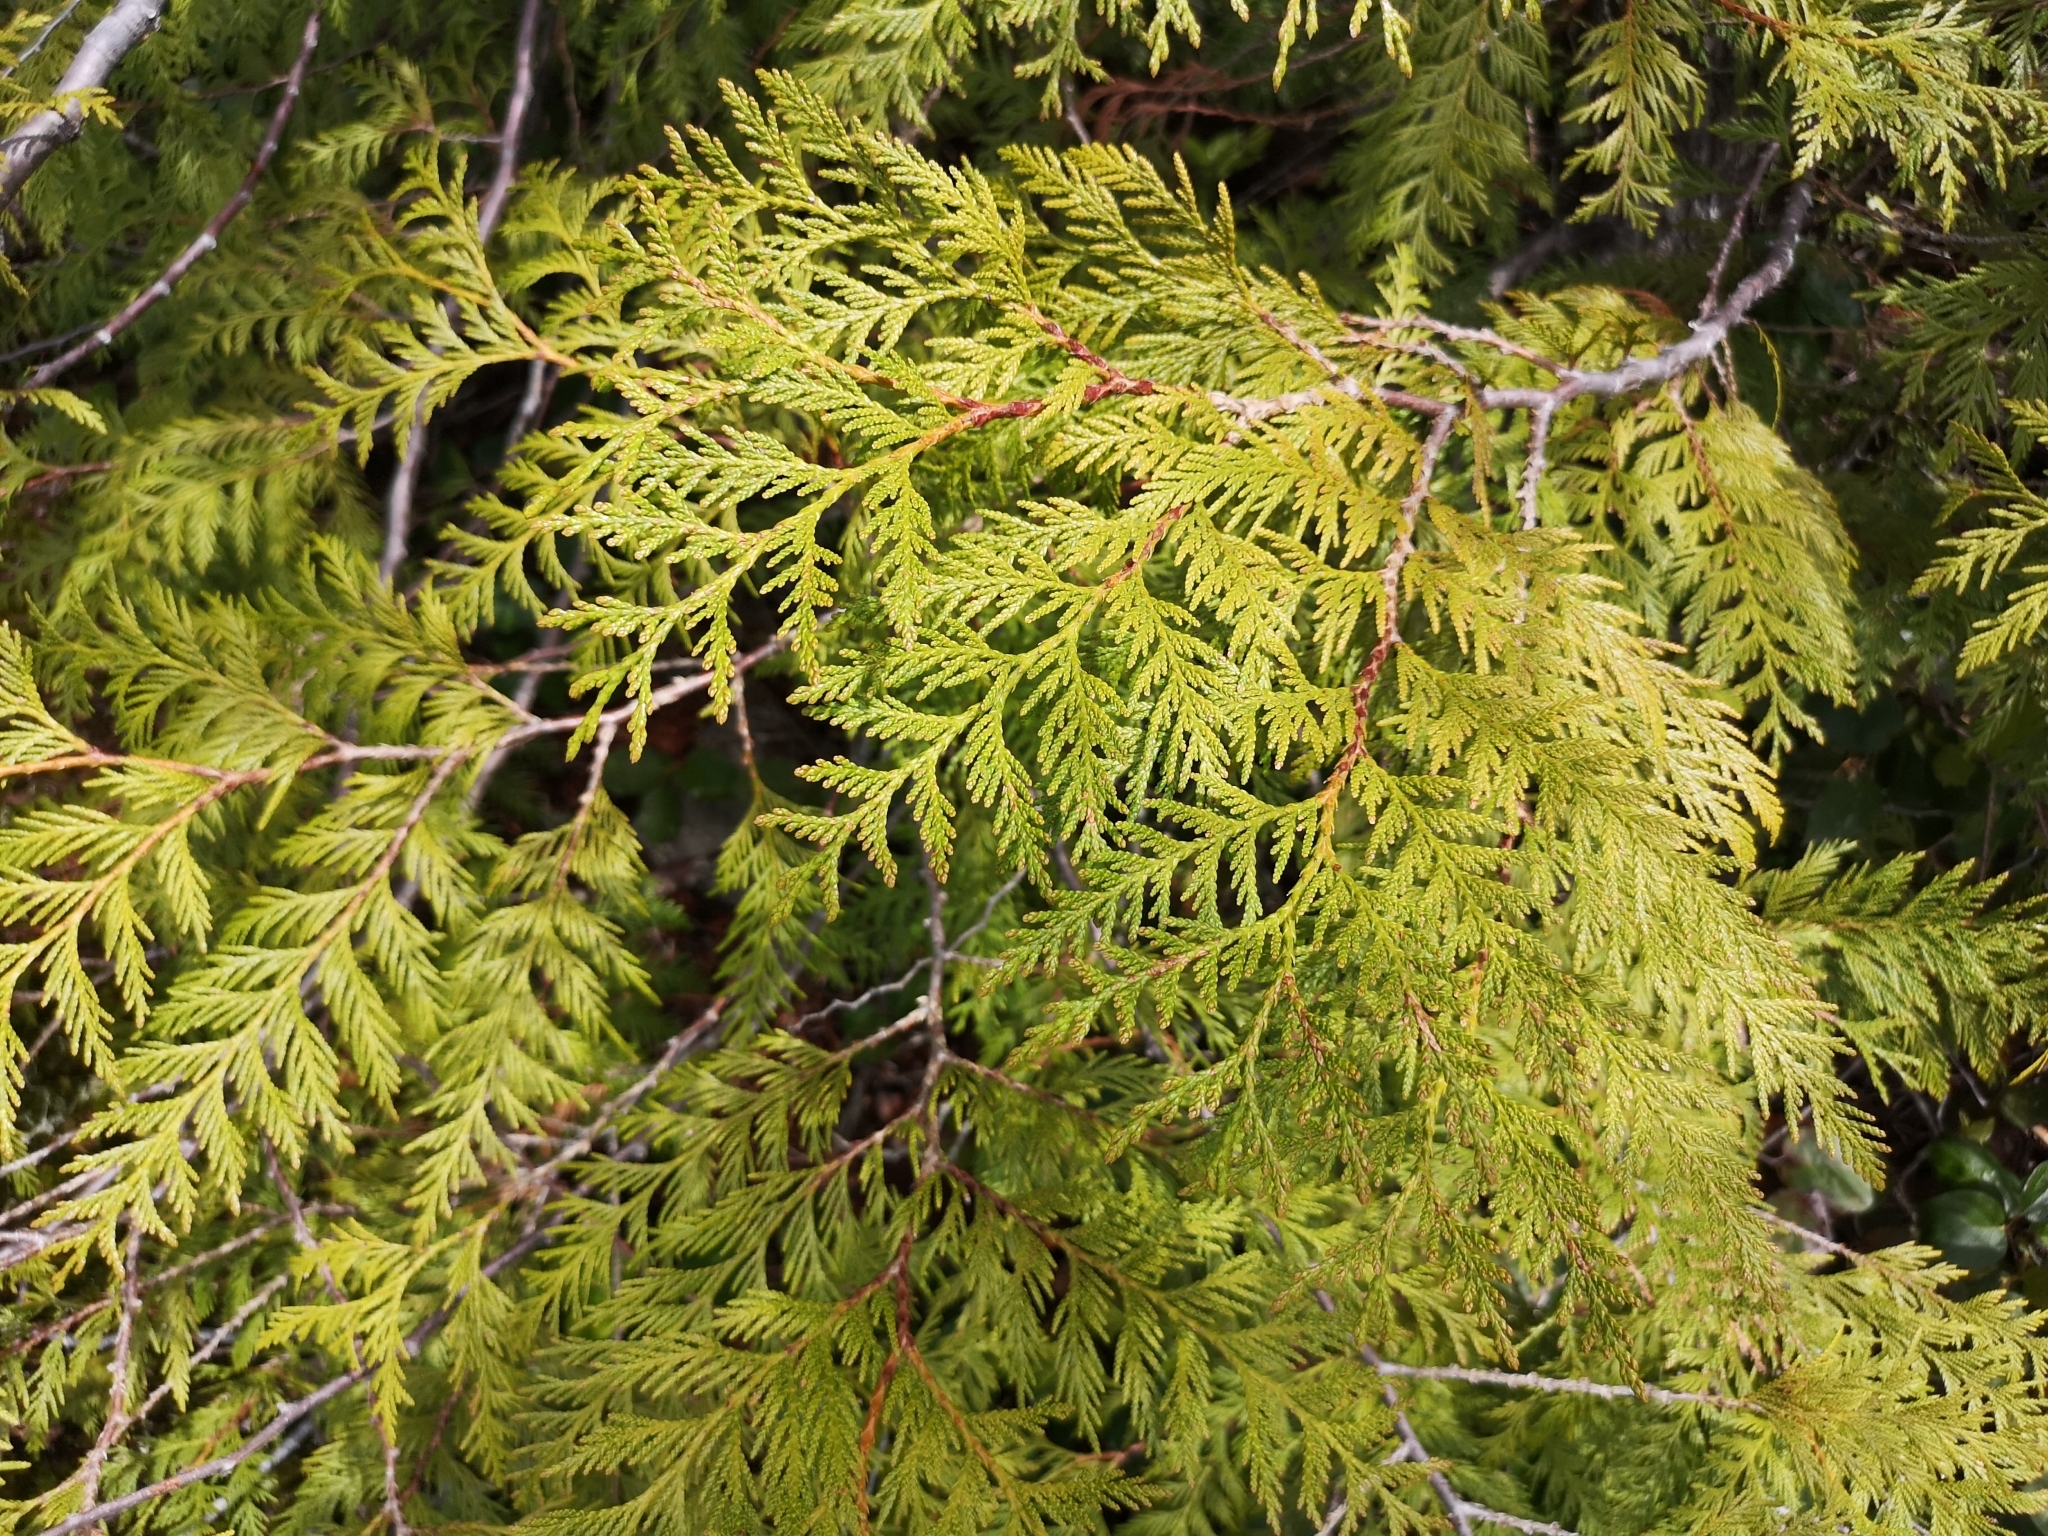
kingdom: Plantae
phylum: Tracheophyta
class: Pinopsida
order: Pinales
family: Cupressaceae
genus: Thuja
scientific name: Thuja plicata
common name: Western red-cedar
